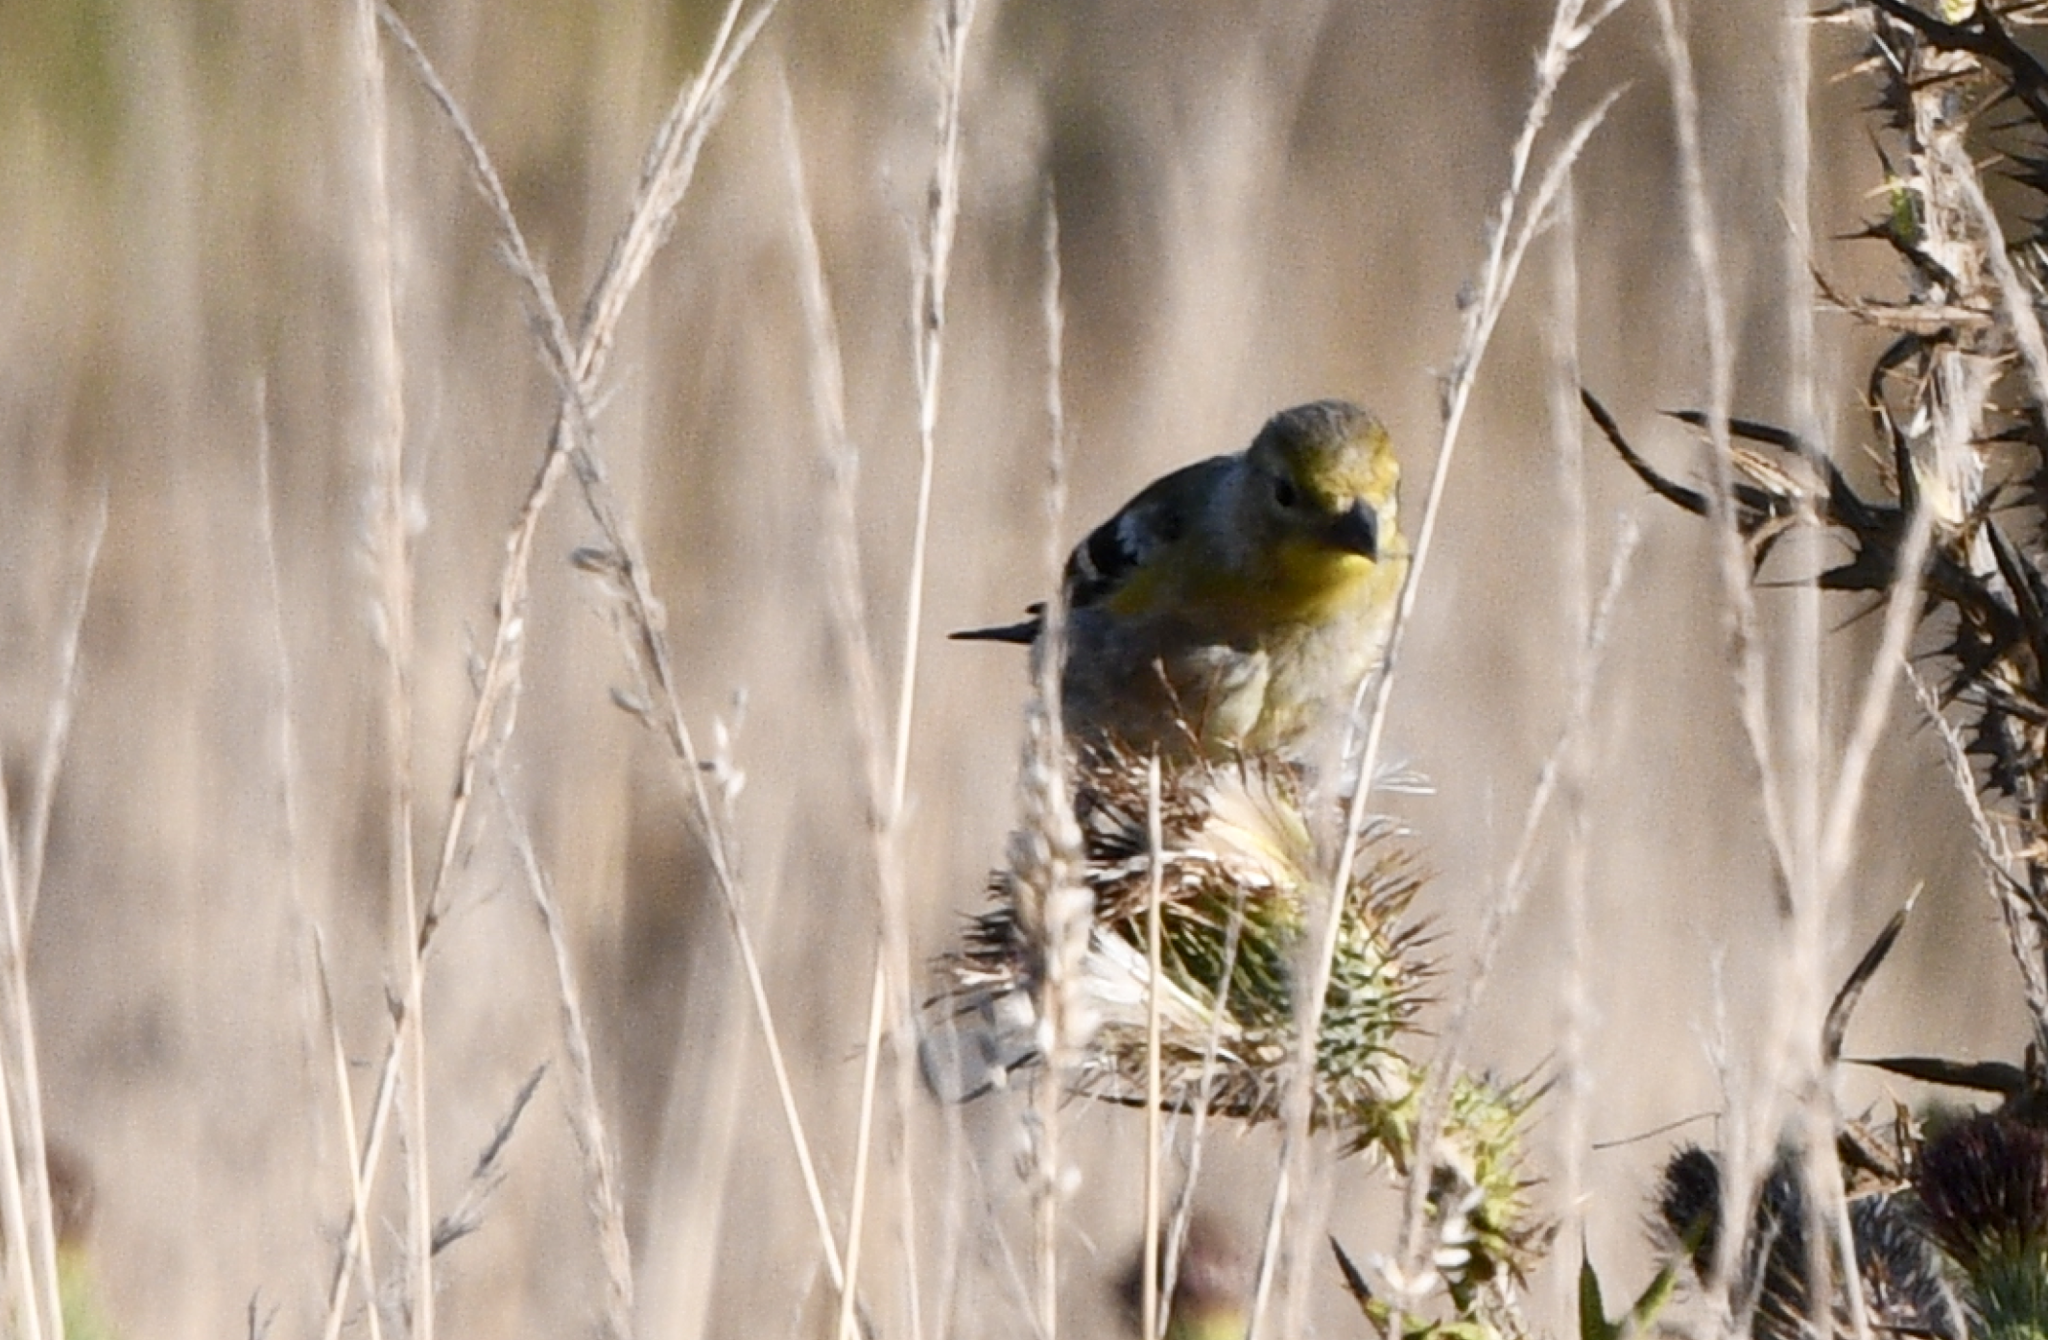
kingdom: Animalia
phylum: Chordata
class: Aves
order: Passeriformes
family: Fringillidae
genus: Spinus
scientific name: Spinus tristis
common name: American goldfinch
